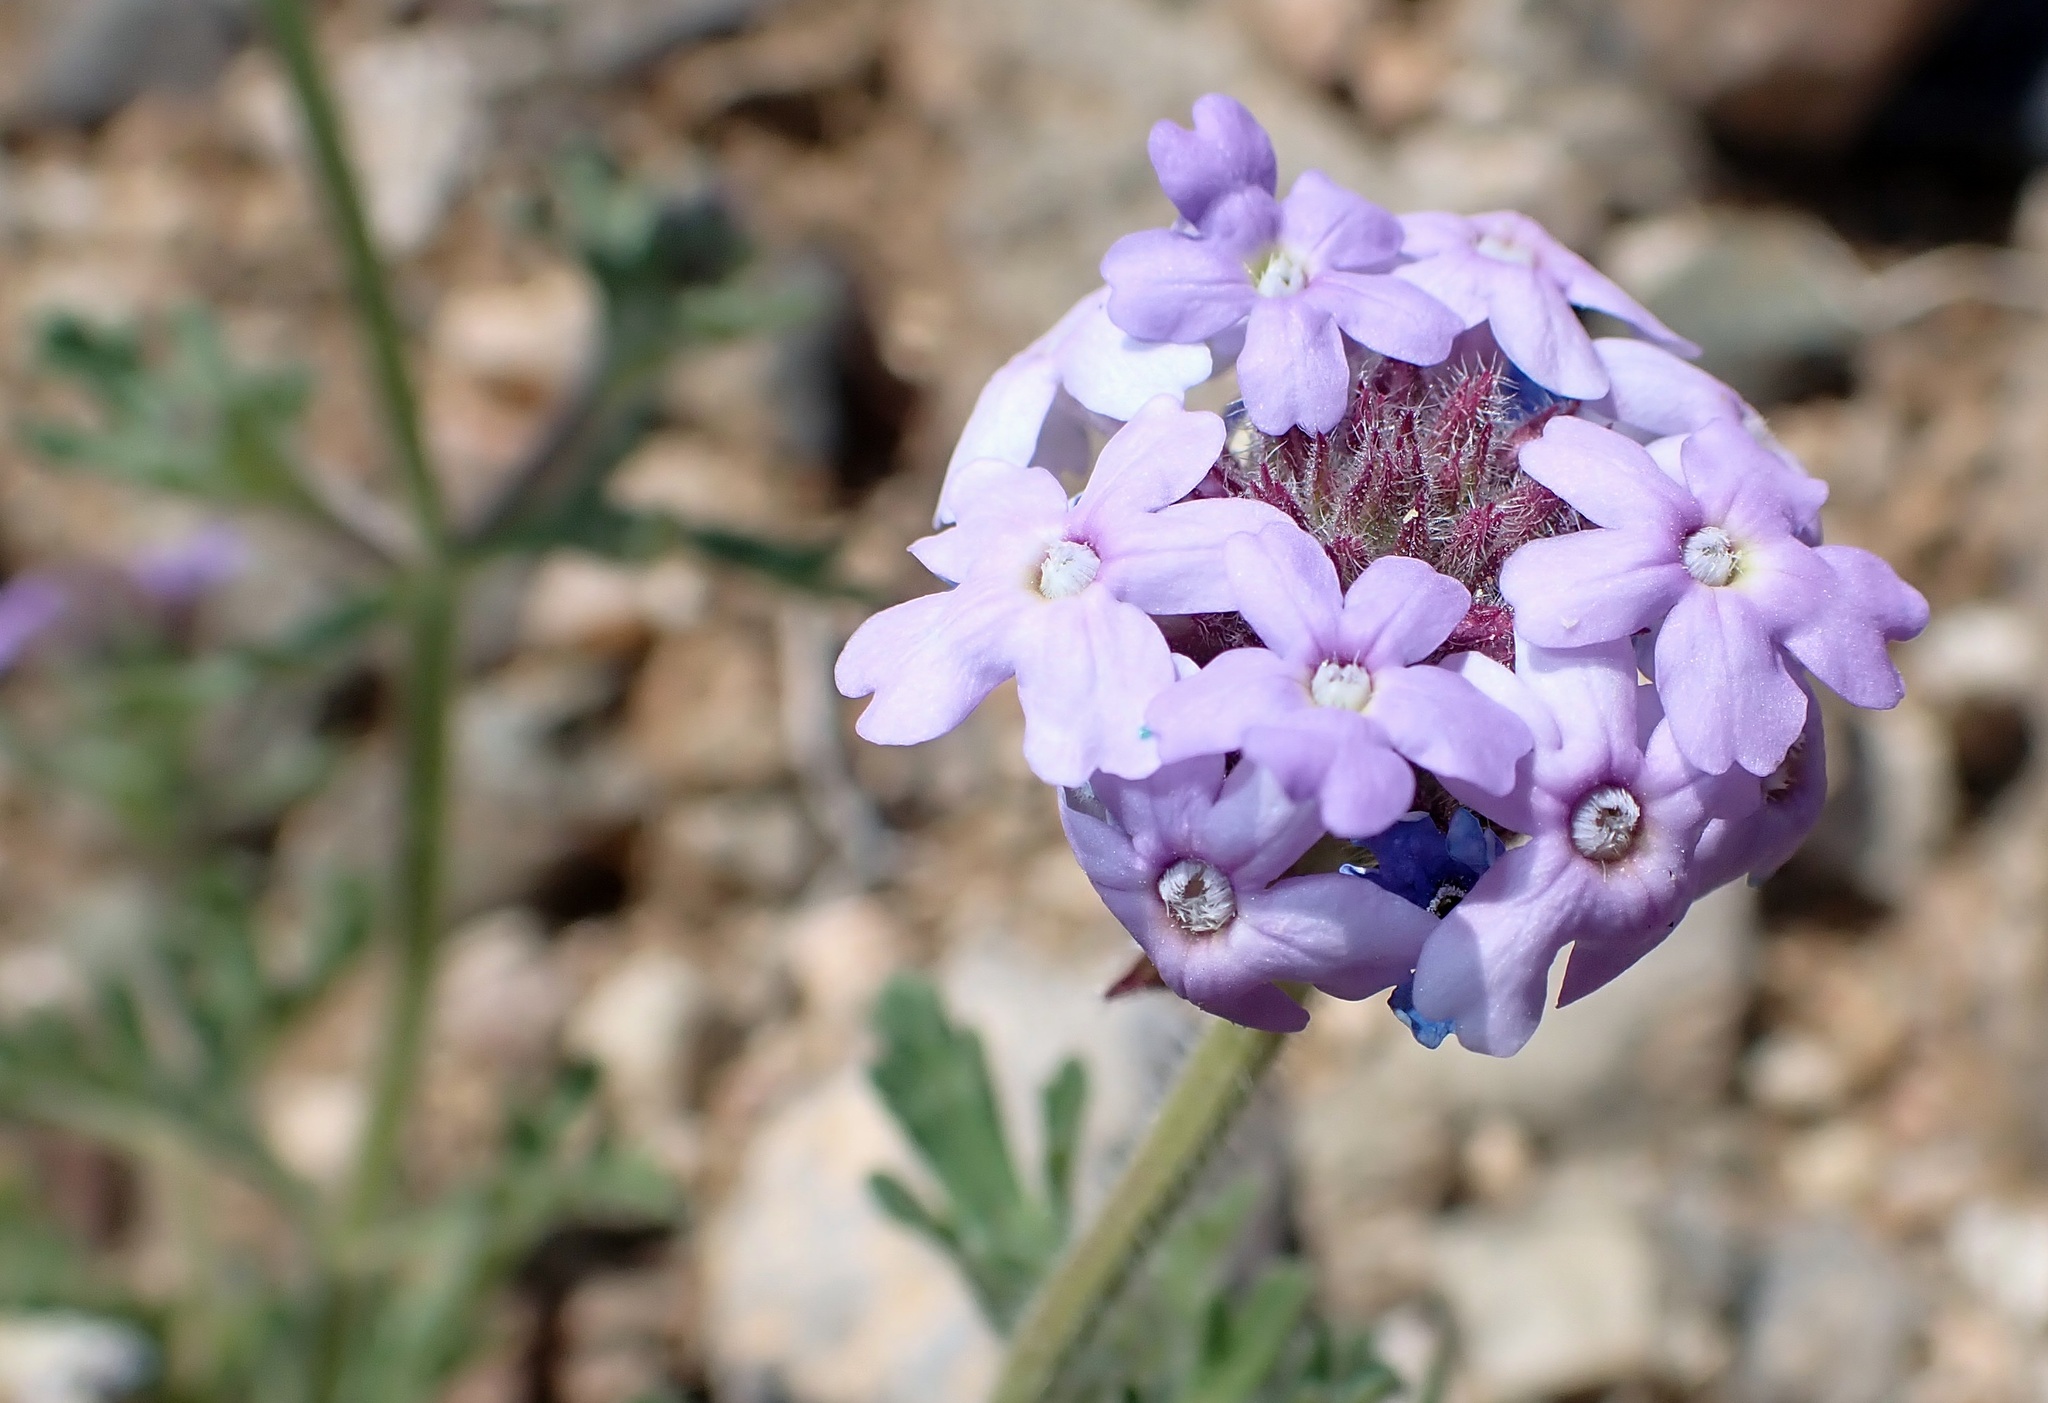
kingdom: Plantae
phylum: Tracheophyta
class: Magnoliopsida
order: Lamiales
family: Verbenaceae
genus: Verbena
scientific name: Verbena gooddingii
